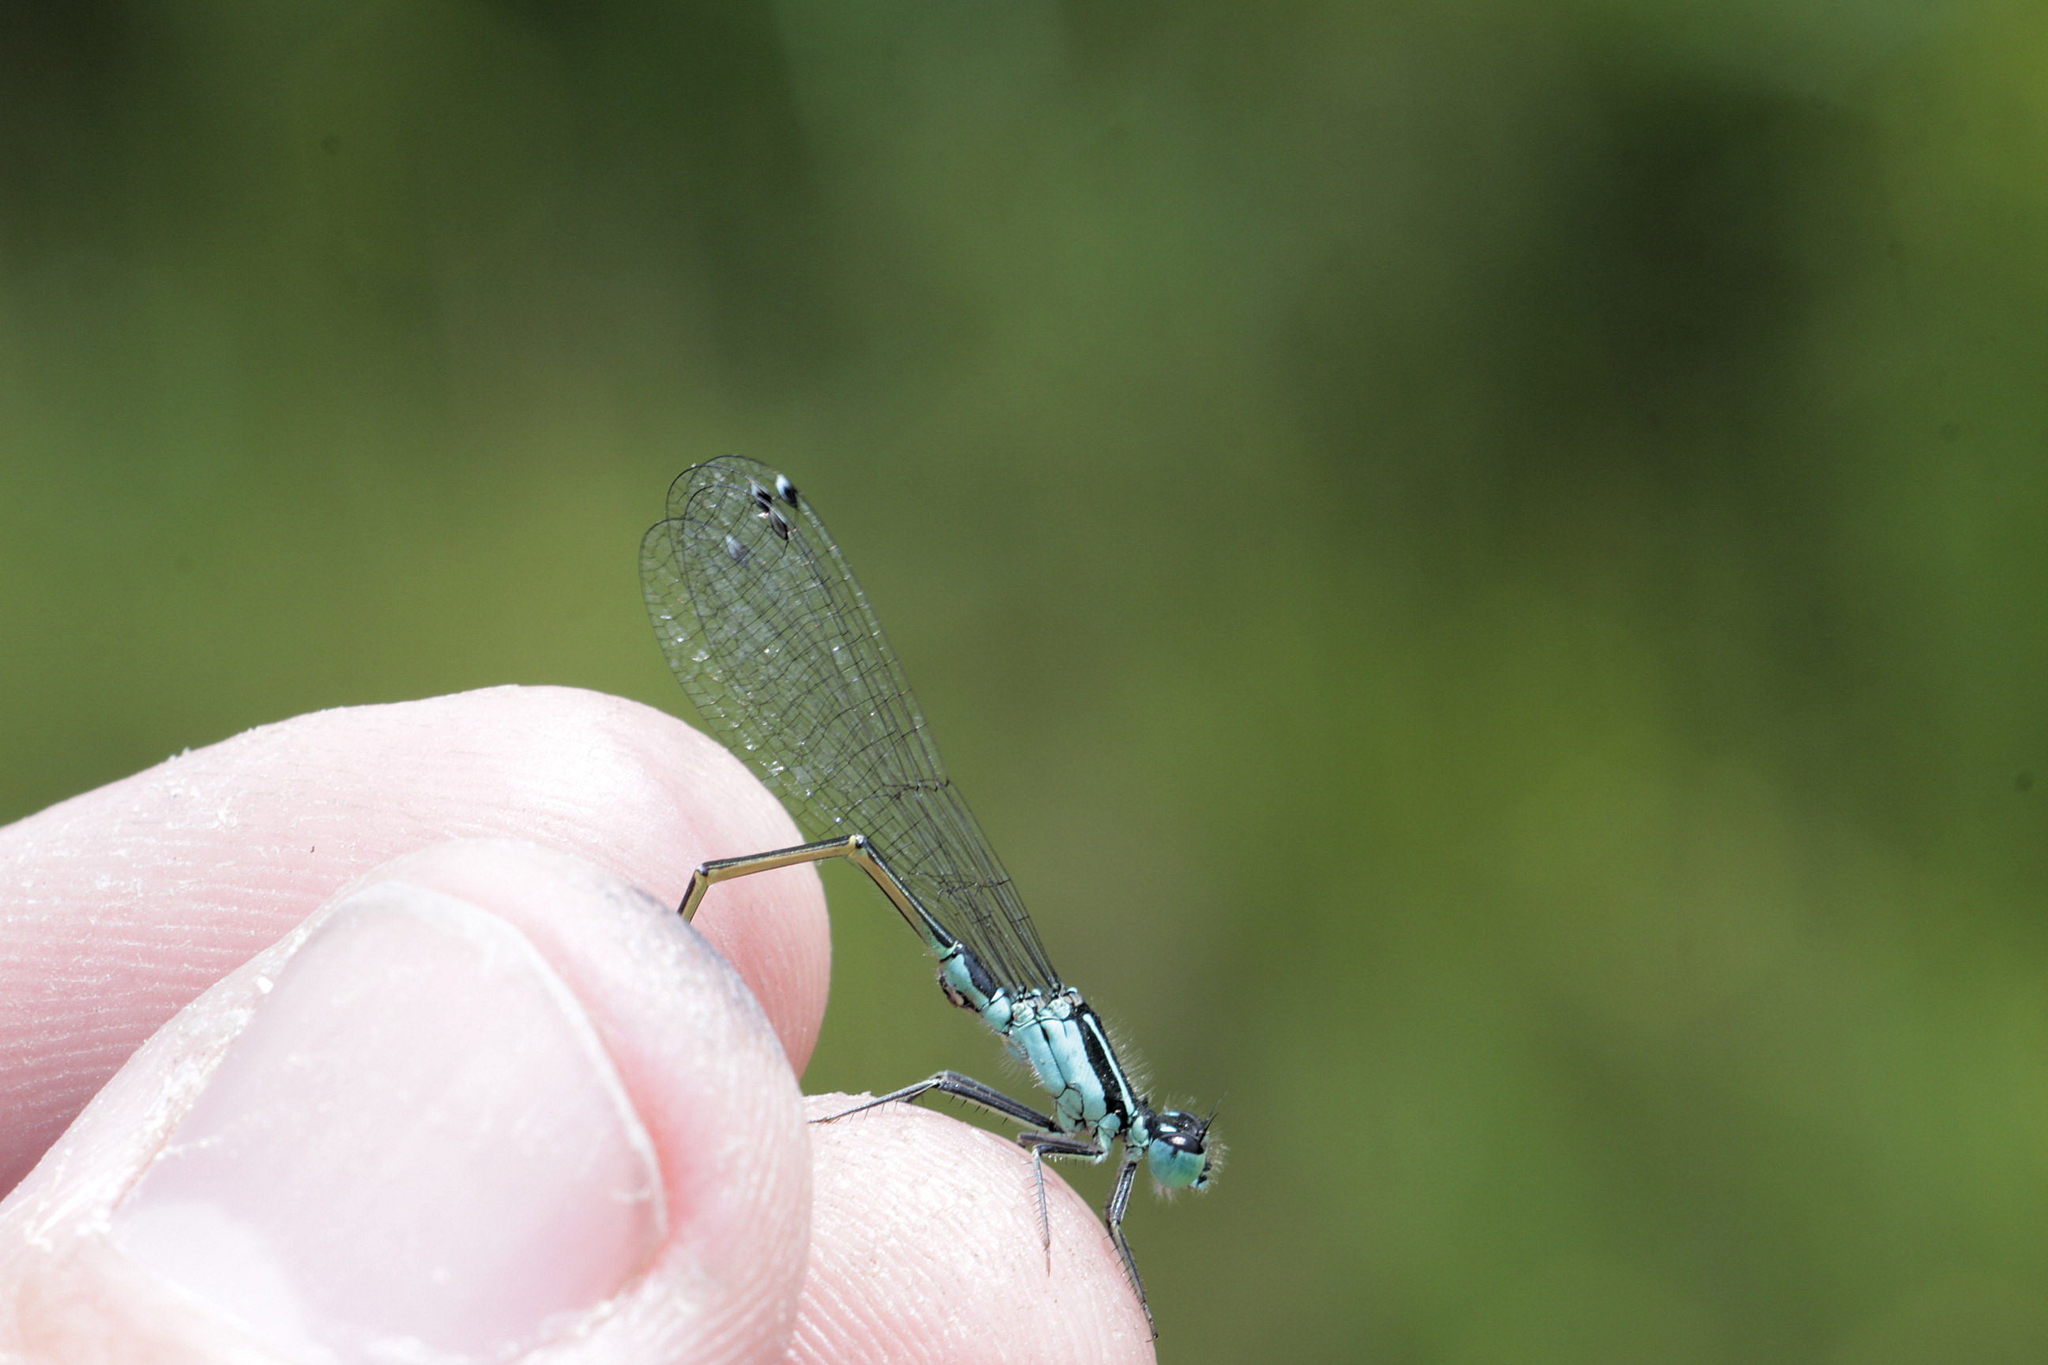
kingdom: Animalia
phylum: Arthropoda
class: Insecta
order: Odonata
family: Coenagrionidae
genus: Ischnura
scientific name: Ischnura elegans
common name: Blue-tailed damselfly
